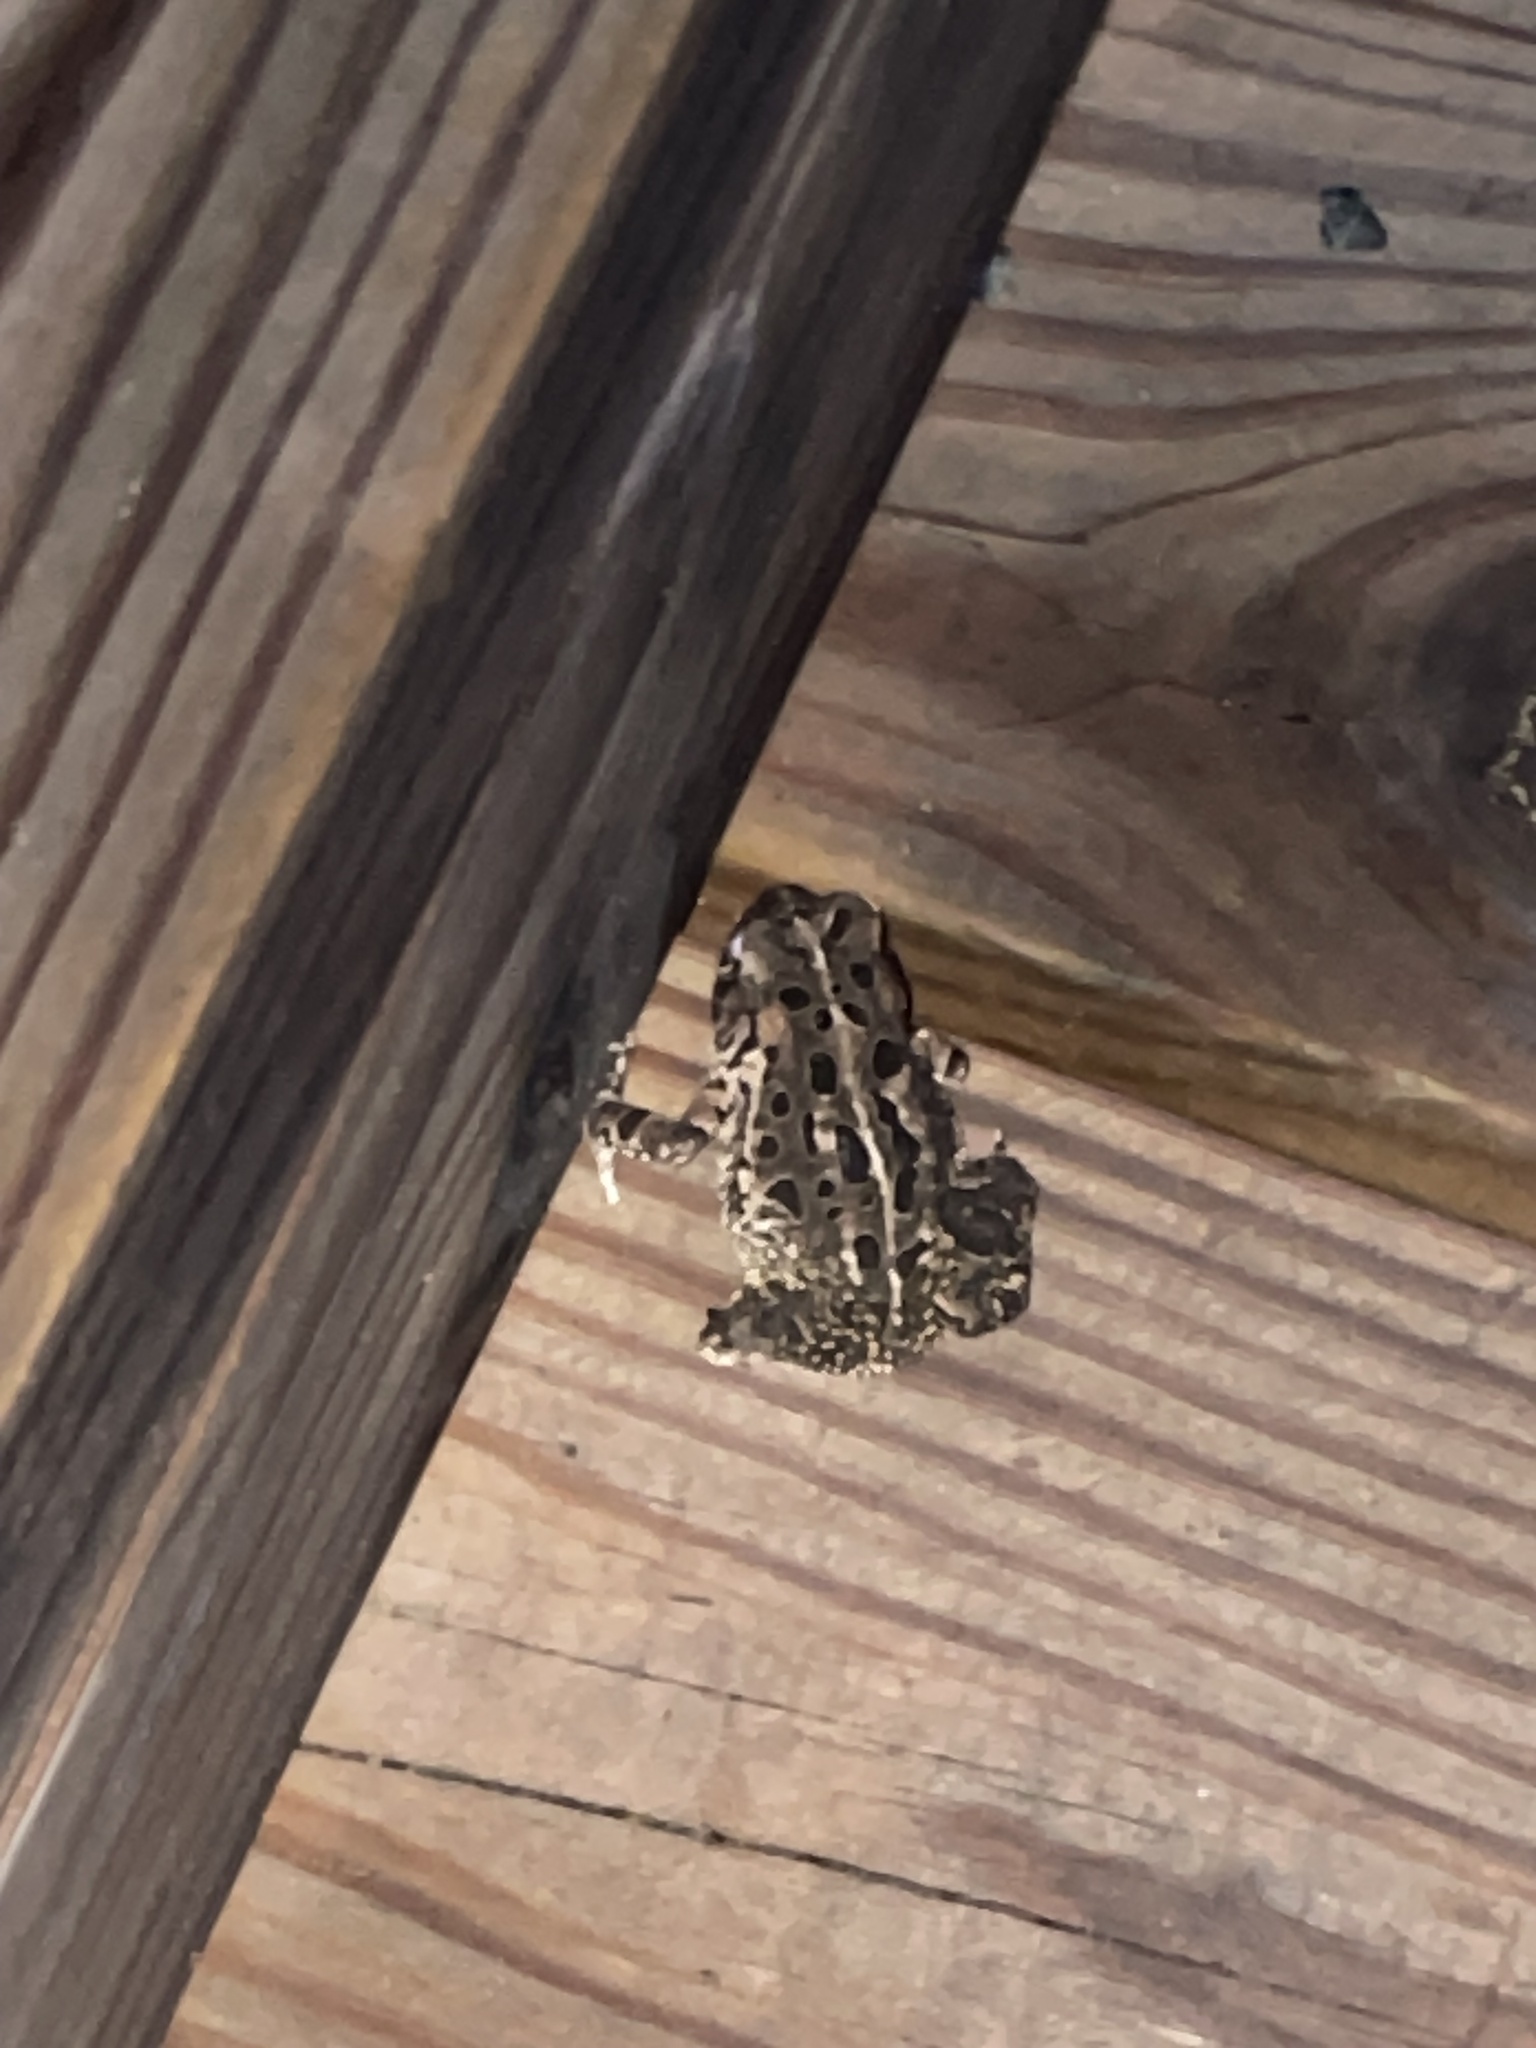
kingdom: Animalia
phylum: Chordata
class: Amphibia
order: Anura
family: Bufonidae
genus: Anaxyrus
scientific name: Anaxyrus fowleri
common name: Fowler's toad
